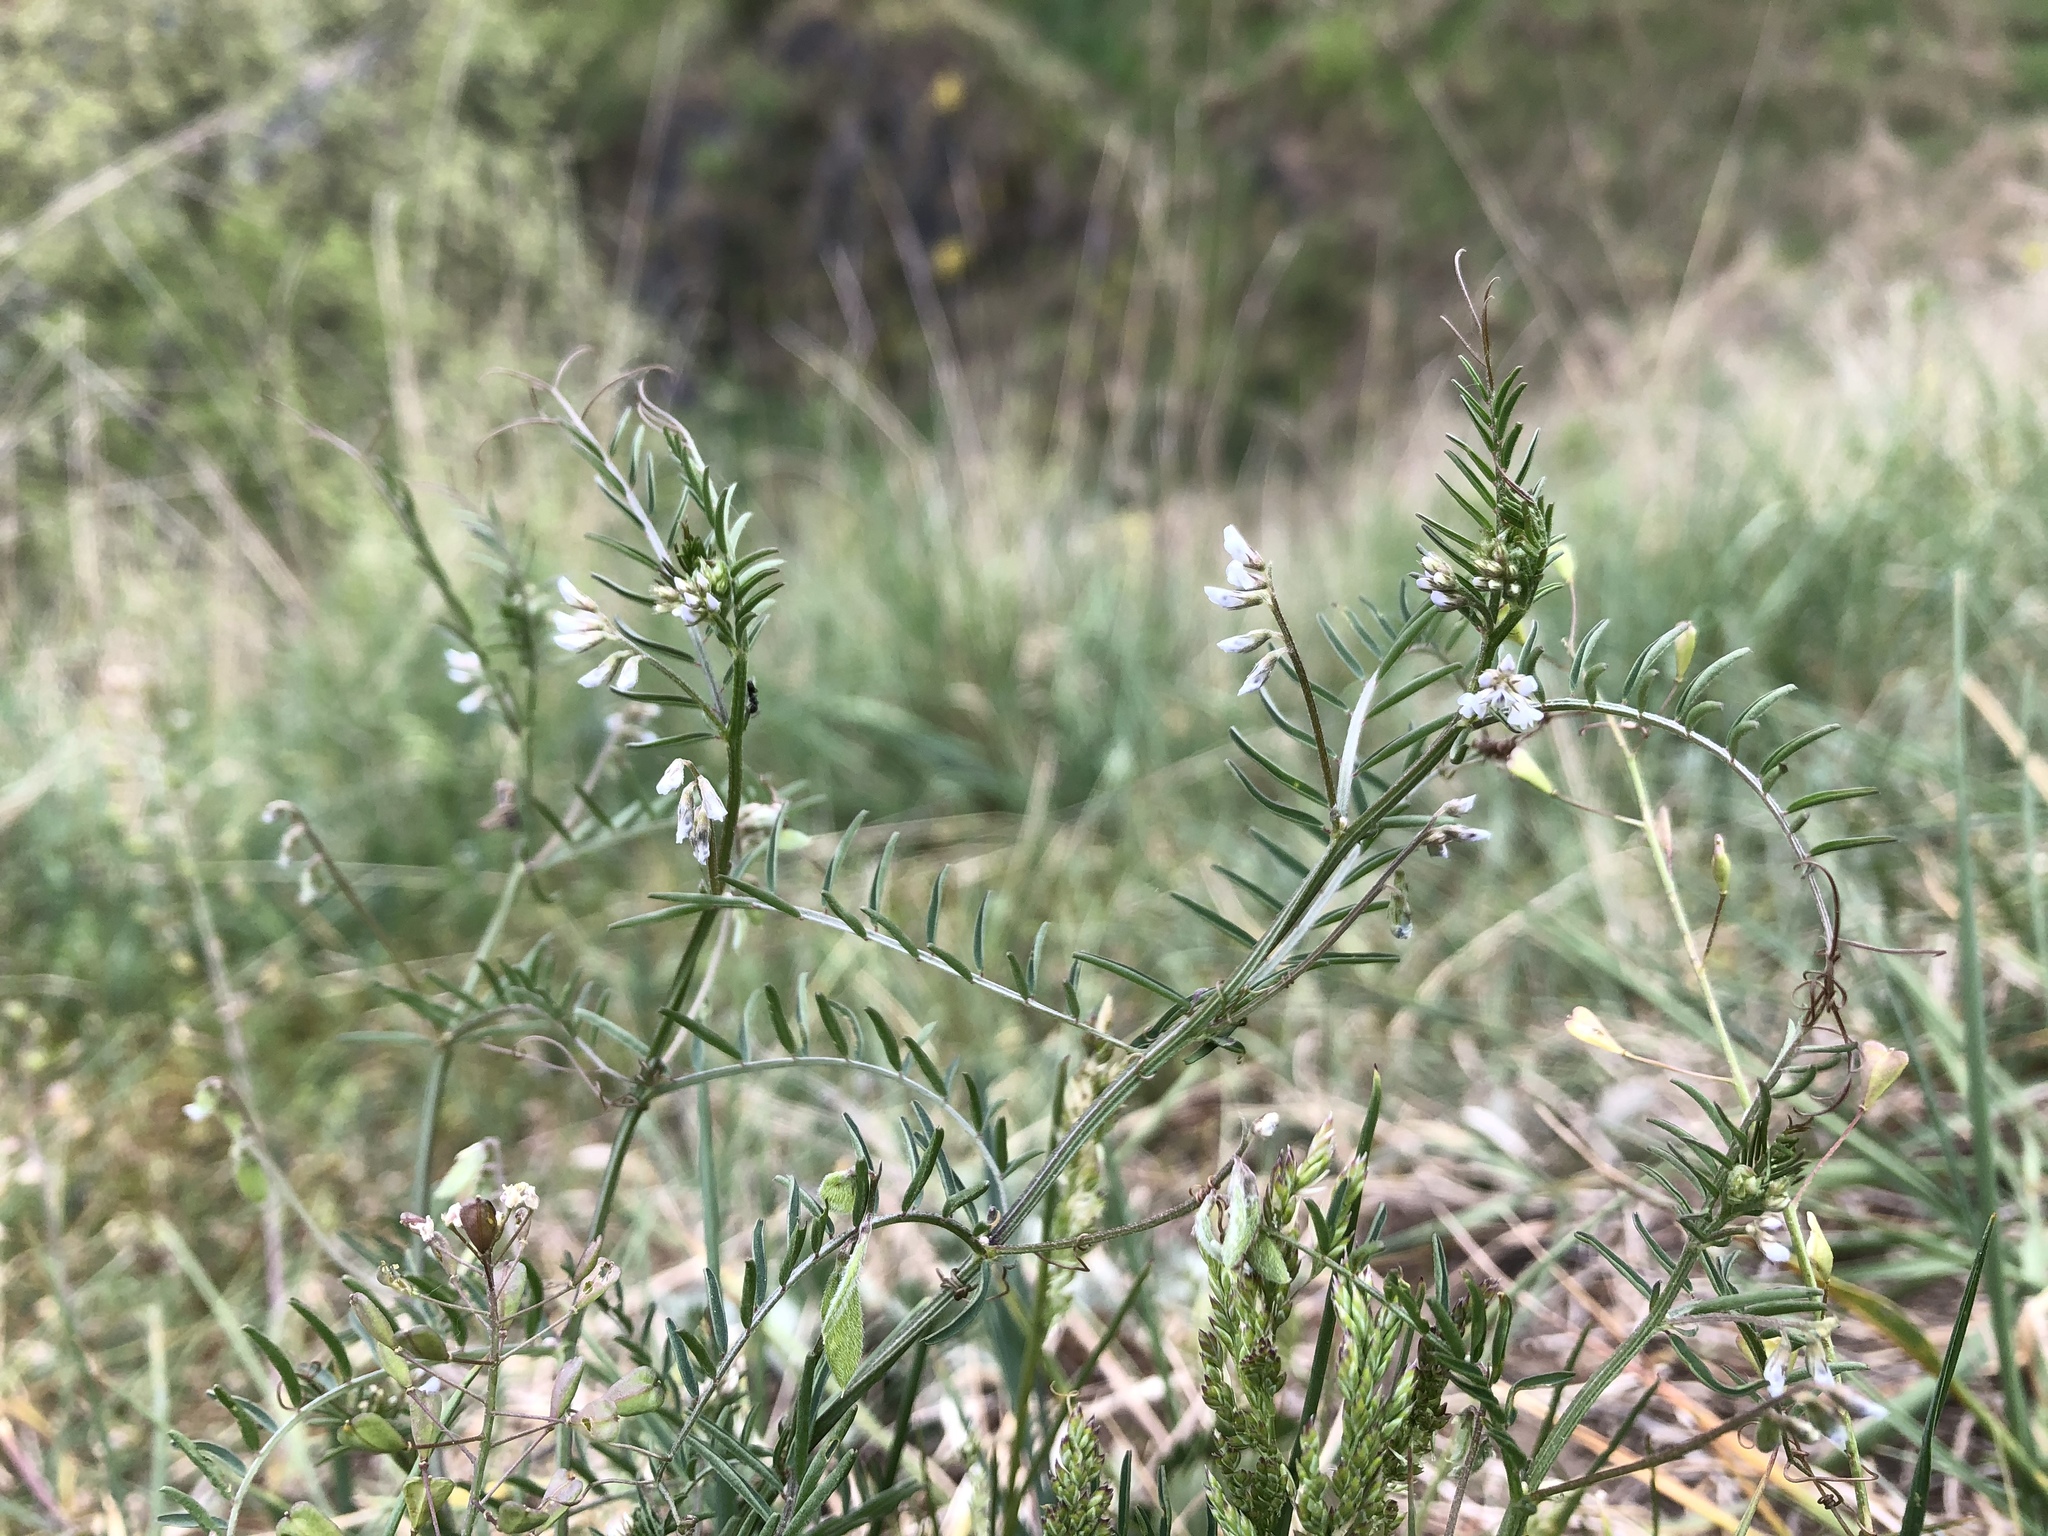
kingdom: Plantae
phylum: Tracheophyta
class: Magnoliopsida
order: Fabales
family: Fabaceae
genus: Vicia
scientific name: Vicia hirsuta
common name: Tiny vetch
